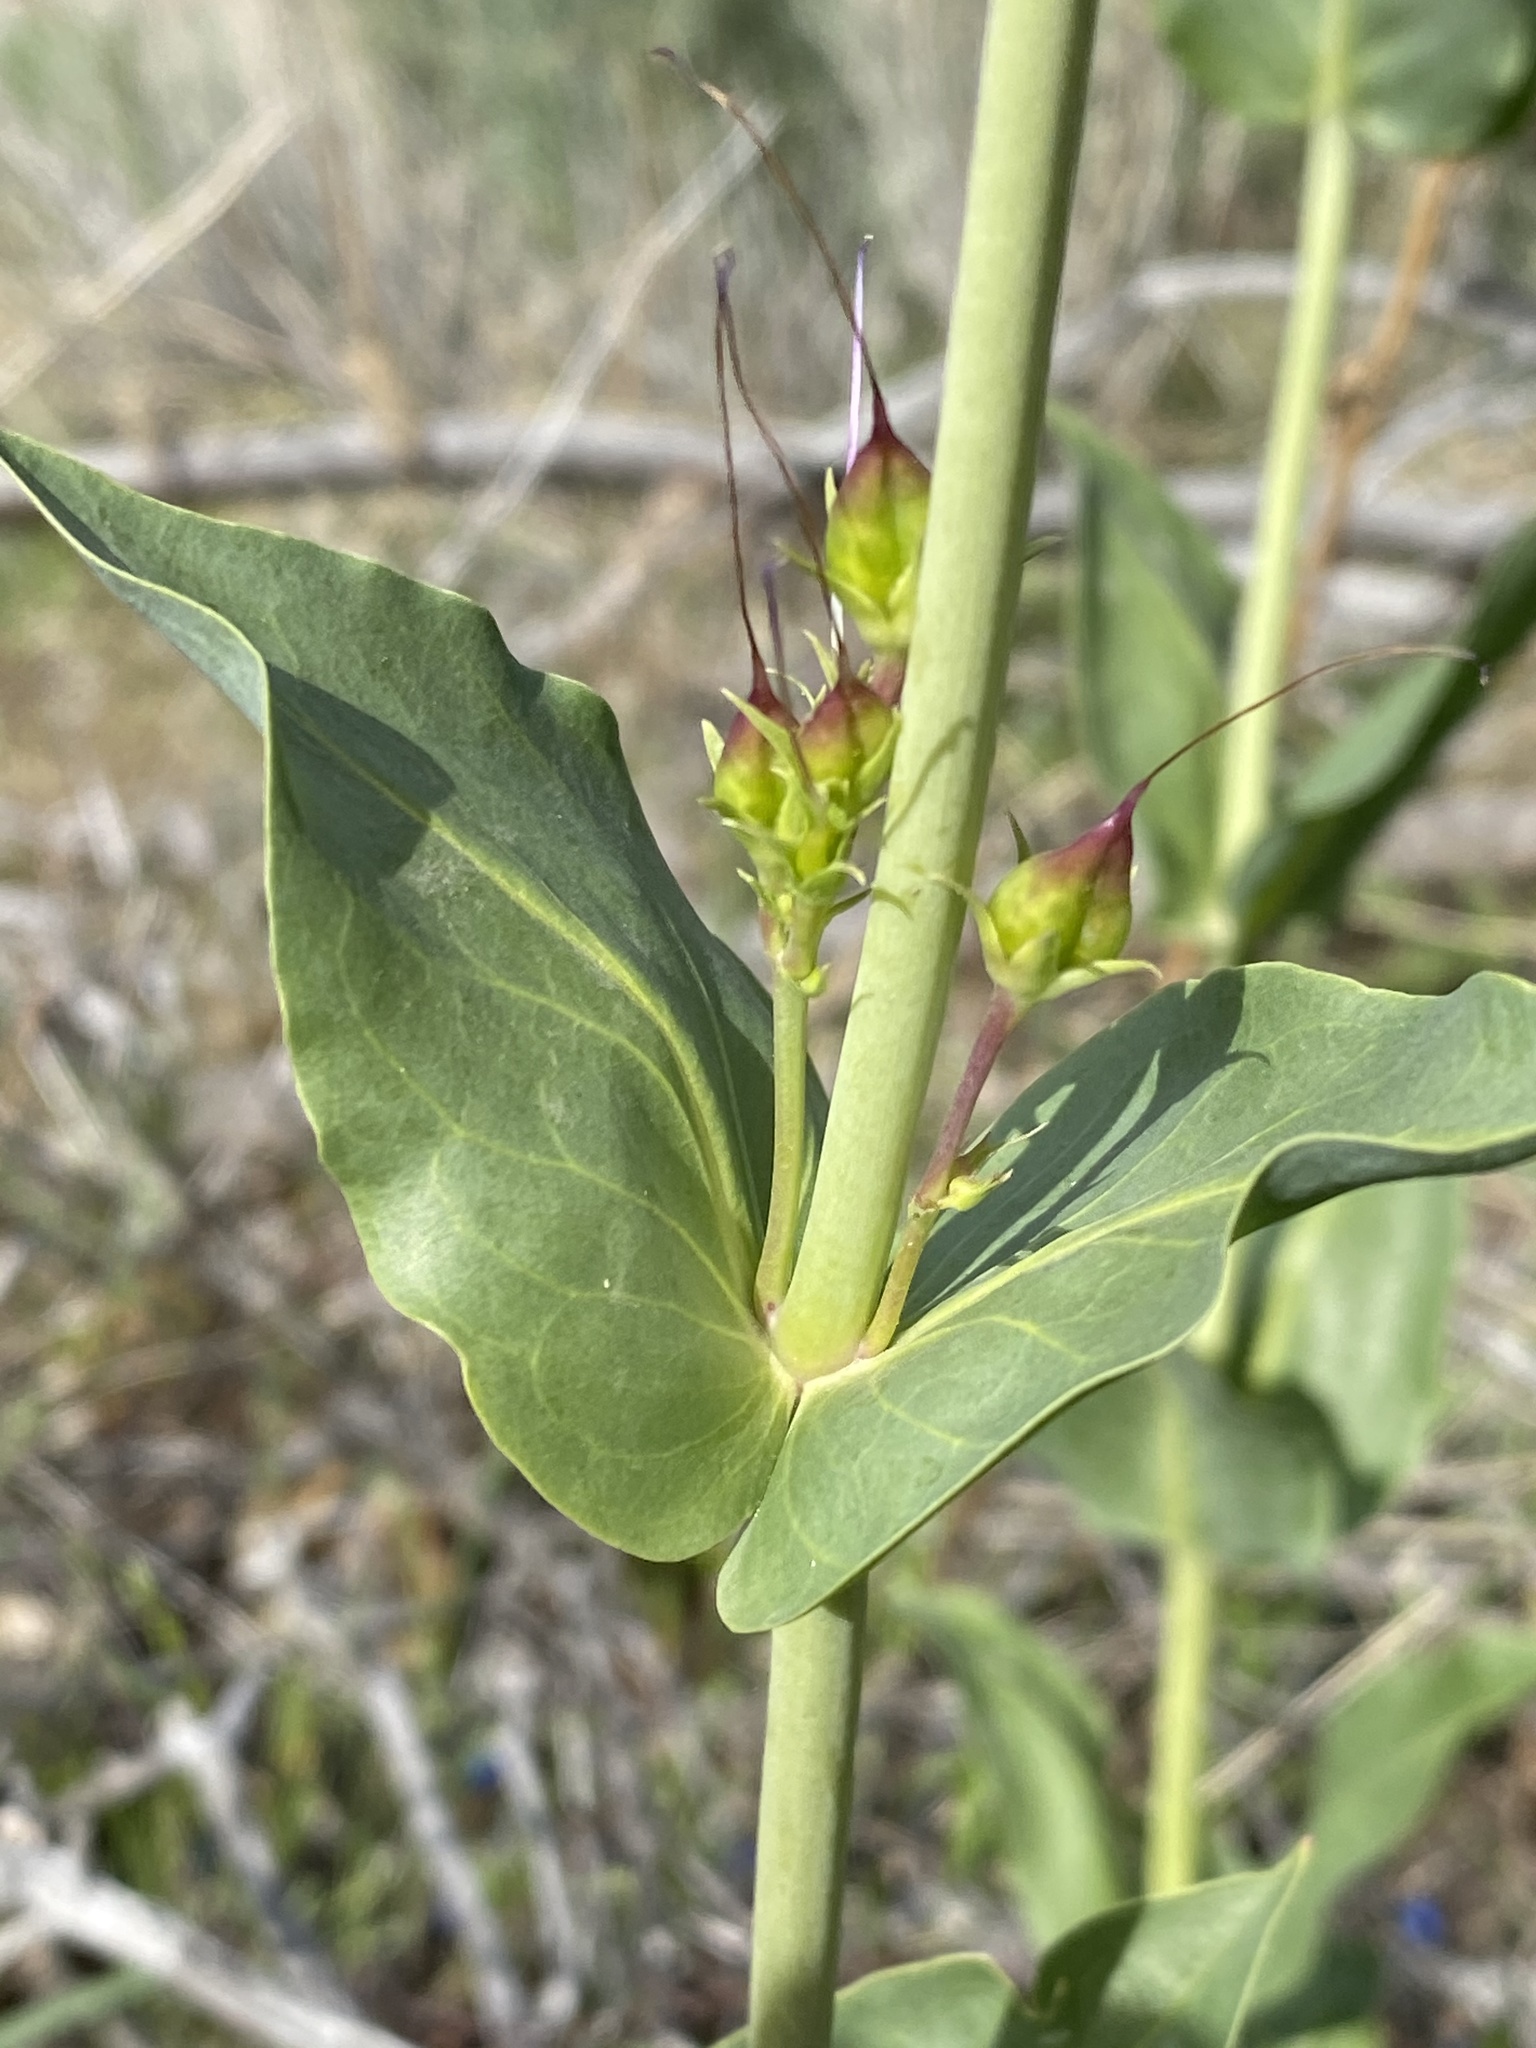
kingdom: Plantae
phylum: Tracheophyta
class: Magnoliopsida
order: Lamiales
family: Plantaginaceae
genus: Penstemon
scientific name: Penstemon cyananthus
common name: Wasatch penstemon
